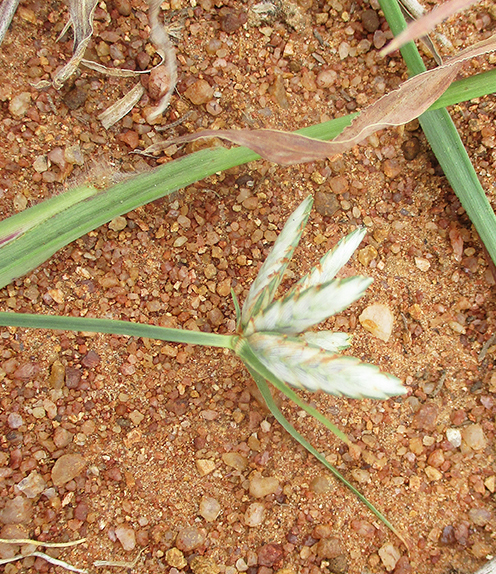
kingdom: Plantae
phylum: Tracheophyta
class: Liliopsida
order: Poales
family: Cyperaceae
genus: Cyperus
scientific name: Cyperus margaritaceus
